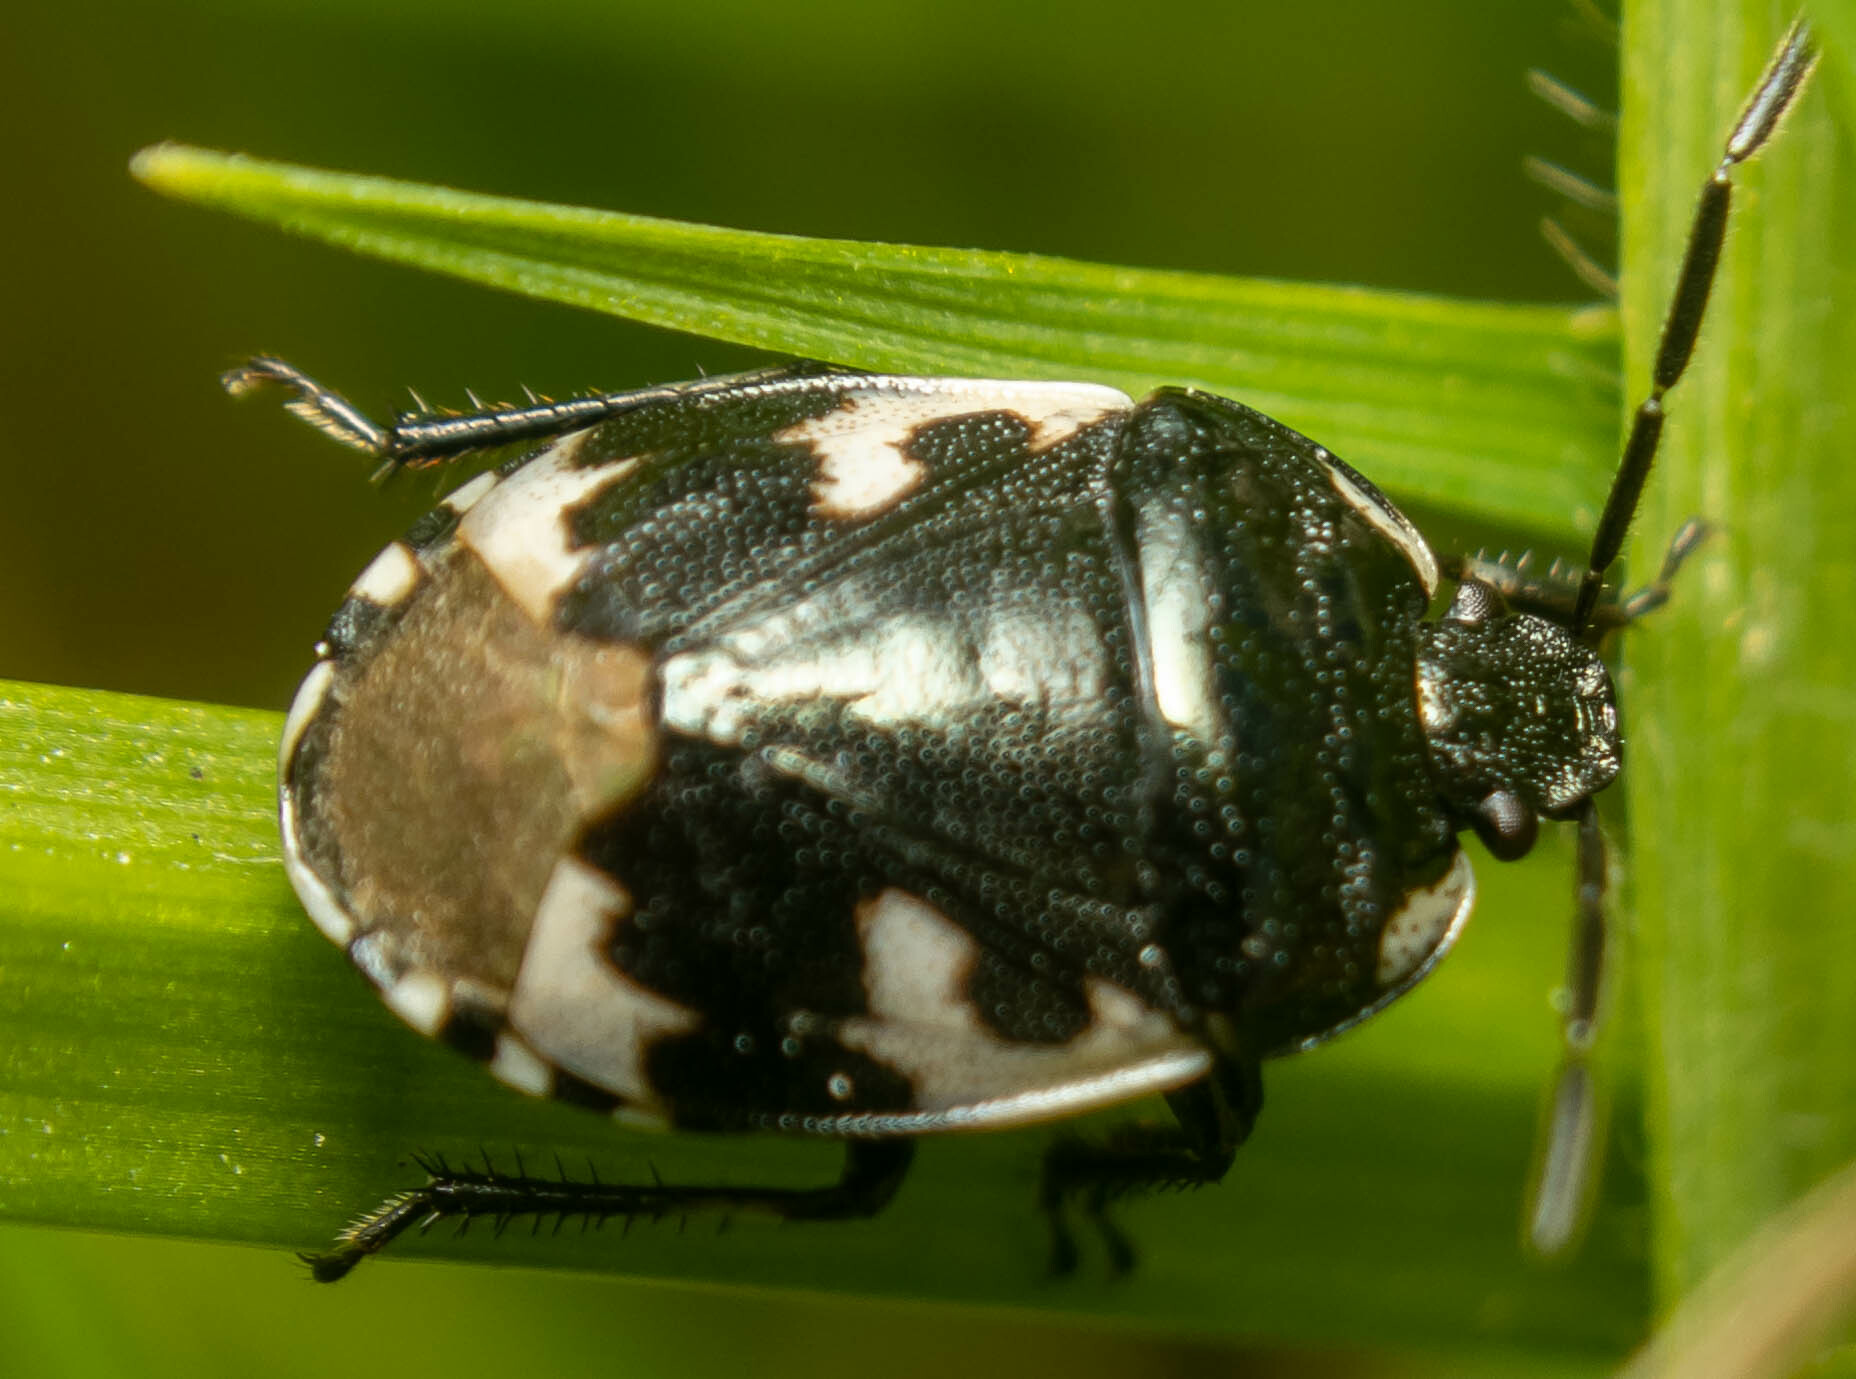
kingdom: Animalia
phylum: Arthropoda
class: Insecta
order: Hemiptera
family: Cydnidae
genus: Tritomegas
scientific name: Tritomegas bicolor
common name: Pied shieldbug
